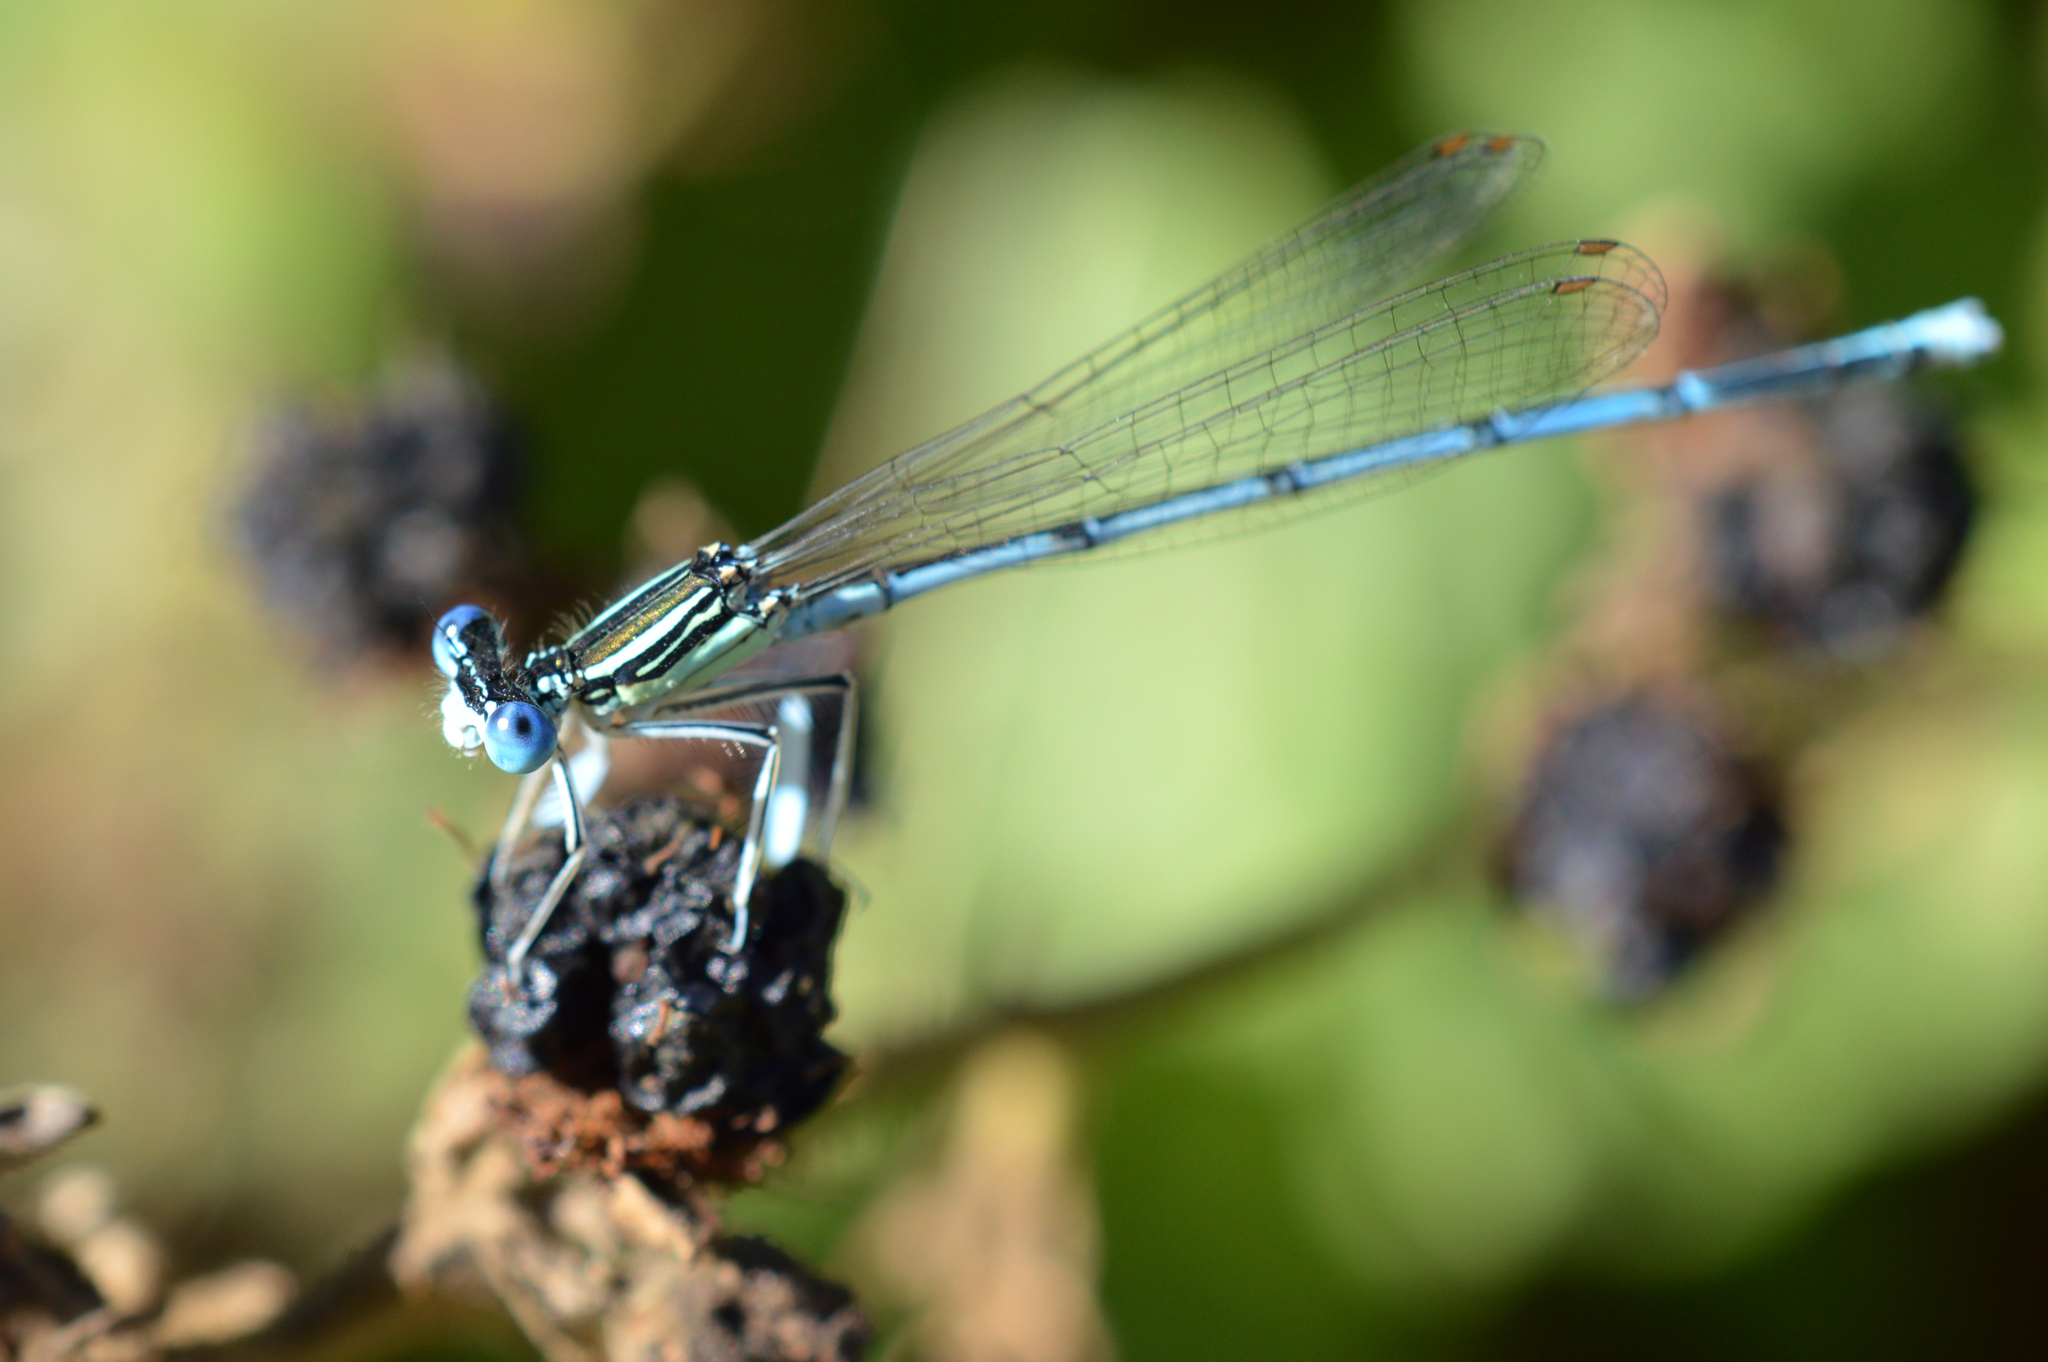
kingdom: Animalia
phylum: Arthropoda
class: Insecta
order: Odonata
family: Platycnemididae
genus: Platycnemis
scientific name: Platycnemis pennipes
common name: White-legged damselfly
